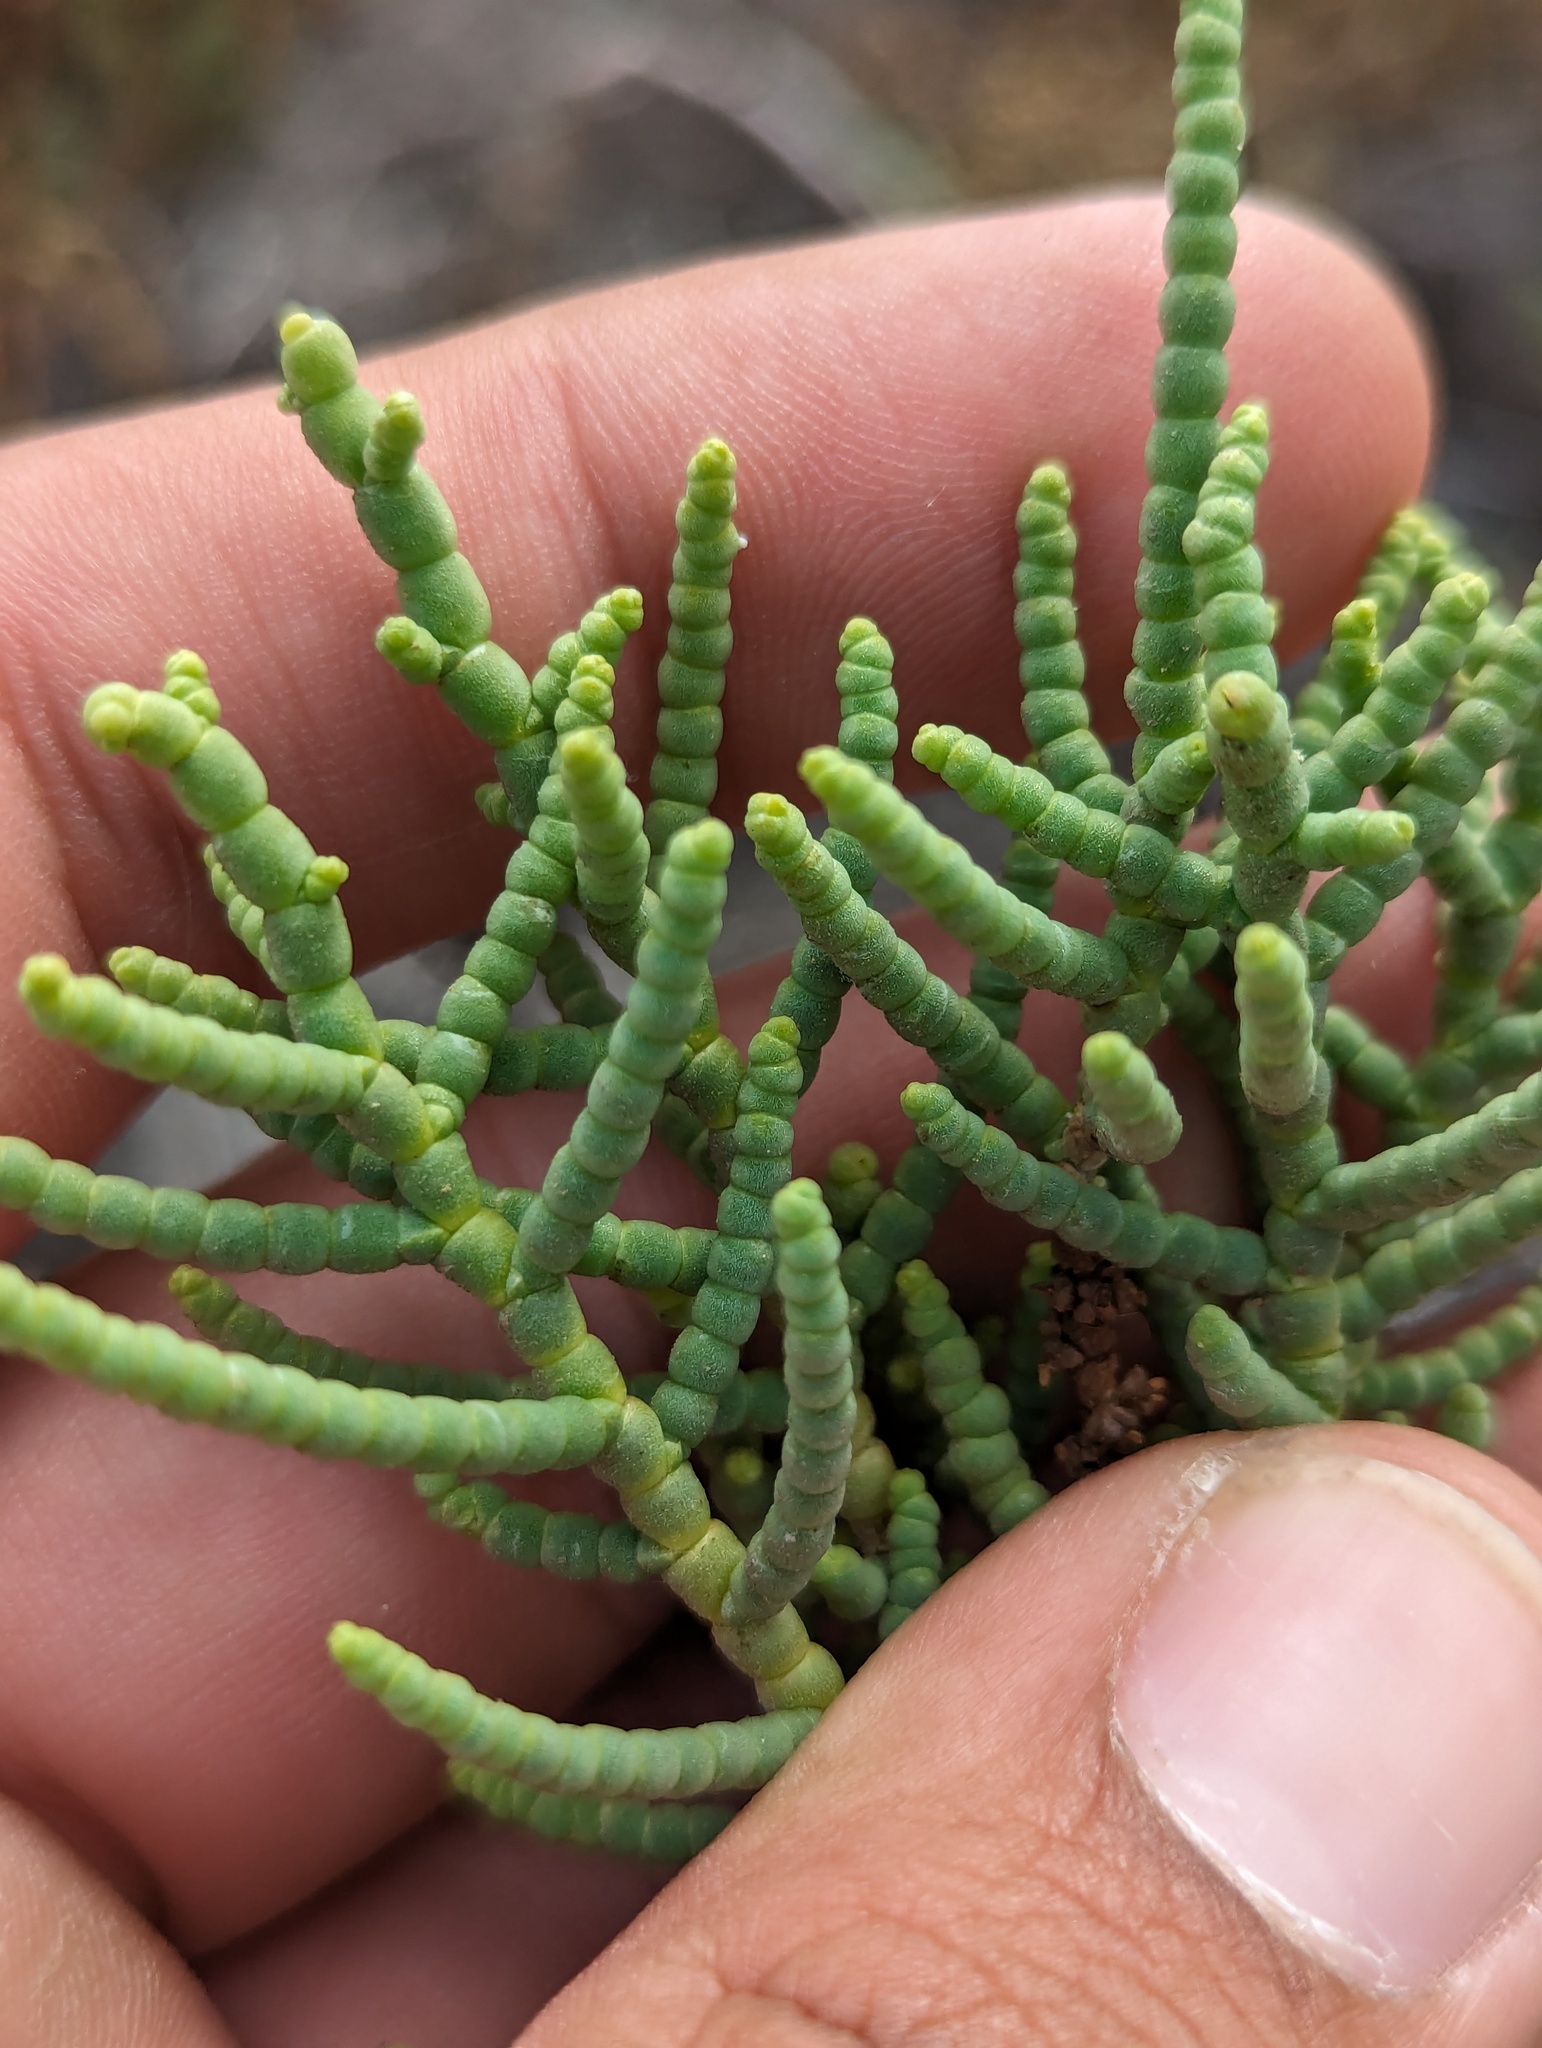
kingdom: Plantae
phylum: Tracheophyta
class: Magnoliopsida
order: Caryophyllales
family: Amaranthaceae
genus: Allenrolfea
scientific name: Allenrolfea occidentalis
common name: Iodine-bush
